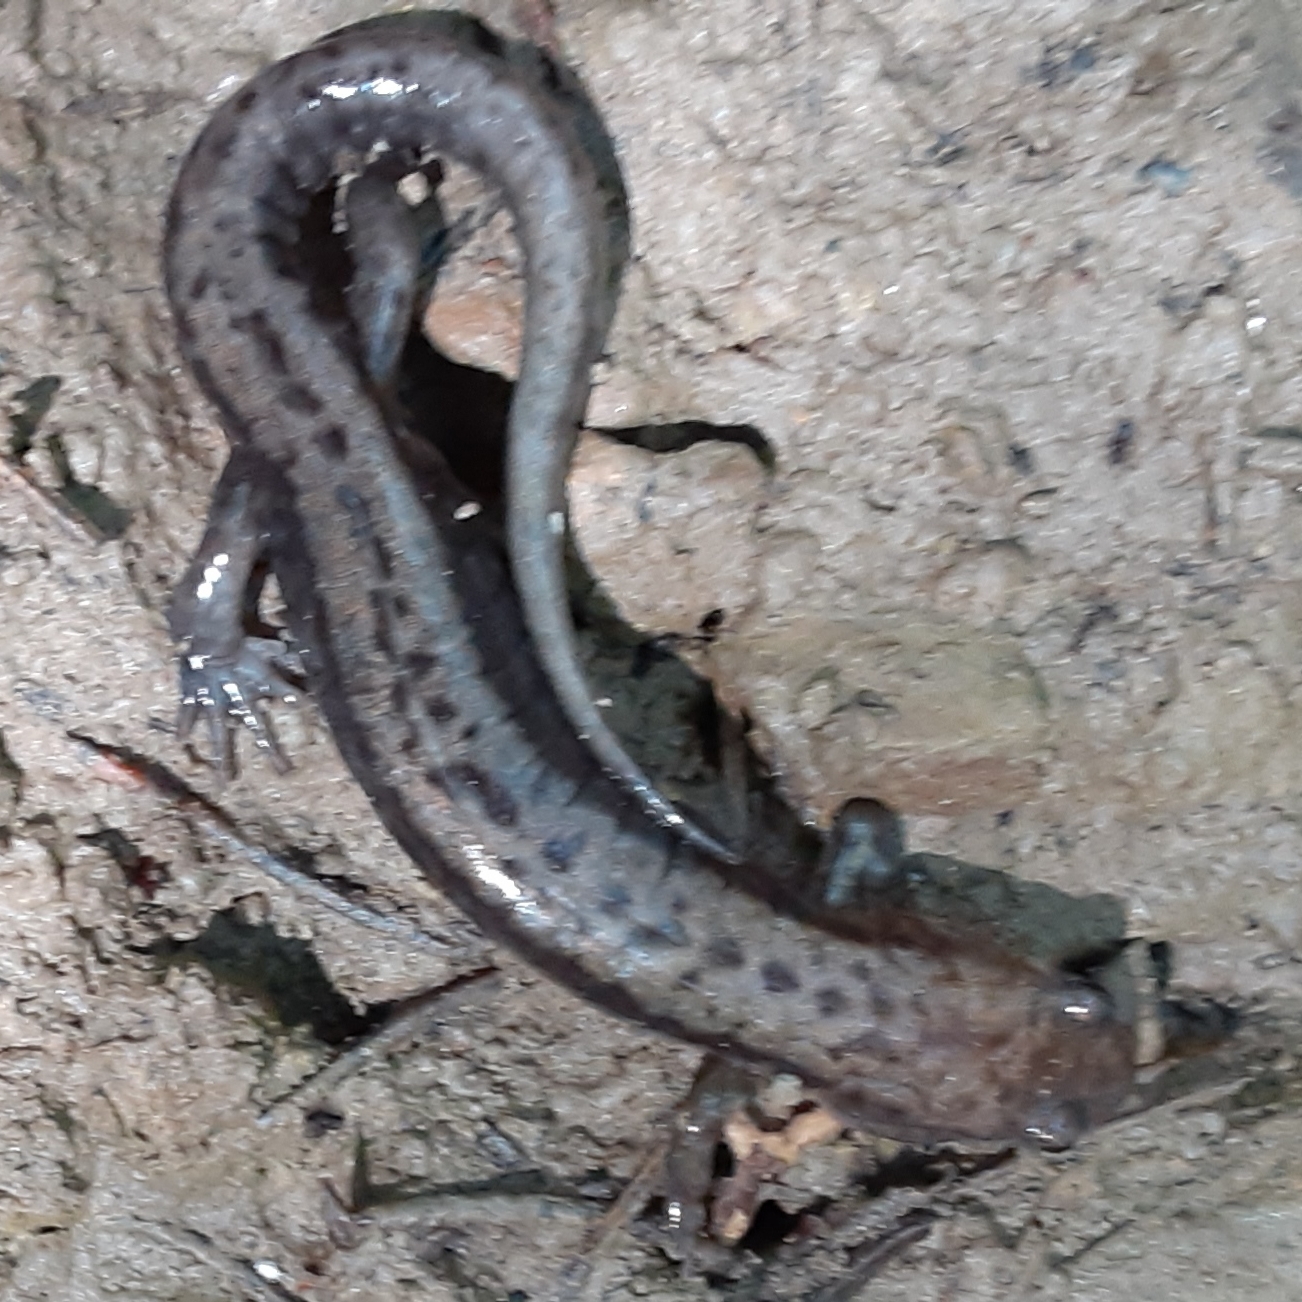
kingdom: Animalia
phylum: Chordata
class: Amphibia
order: Caudata
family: Plethodontidae
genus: Desmognathus
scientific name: Desmognathus ochrophaeus
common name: Allegheny mountain dusky salamander
